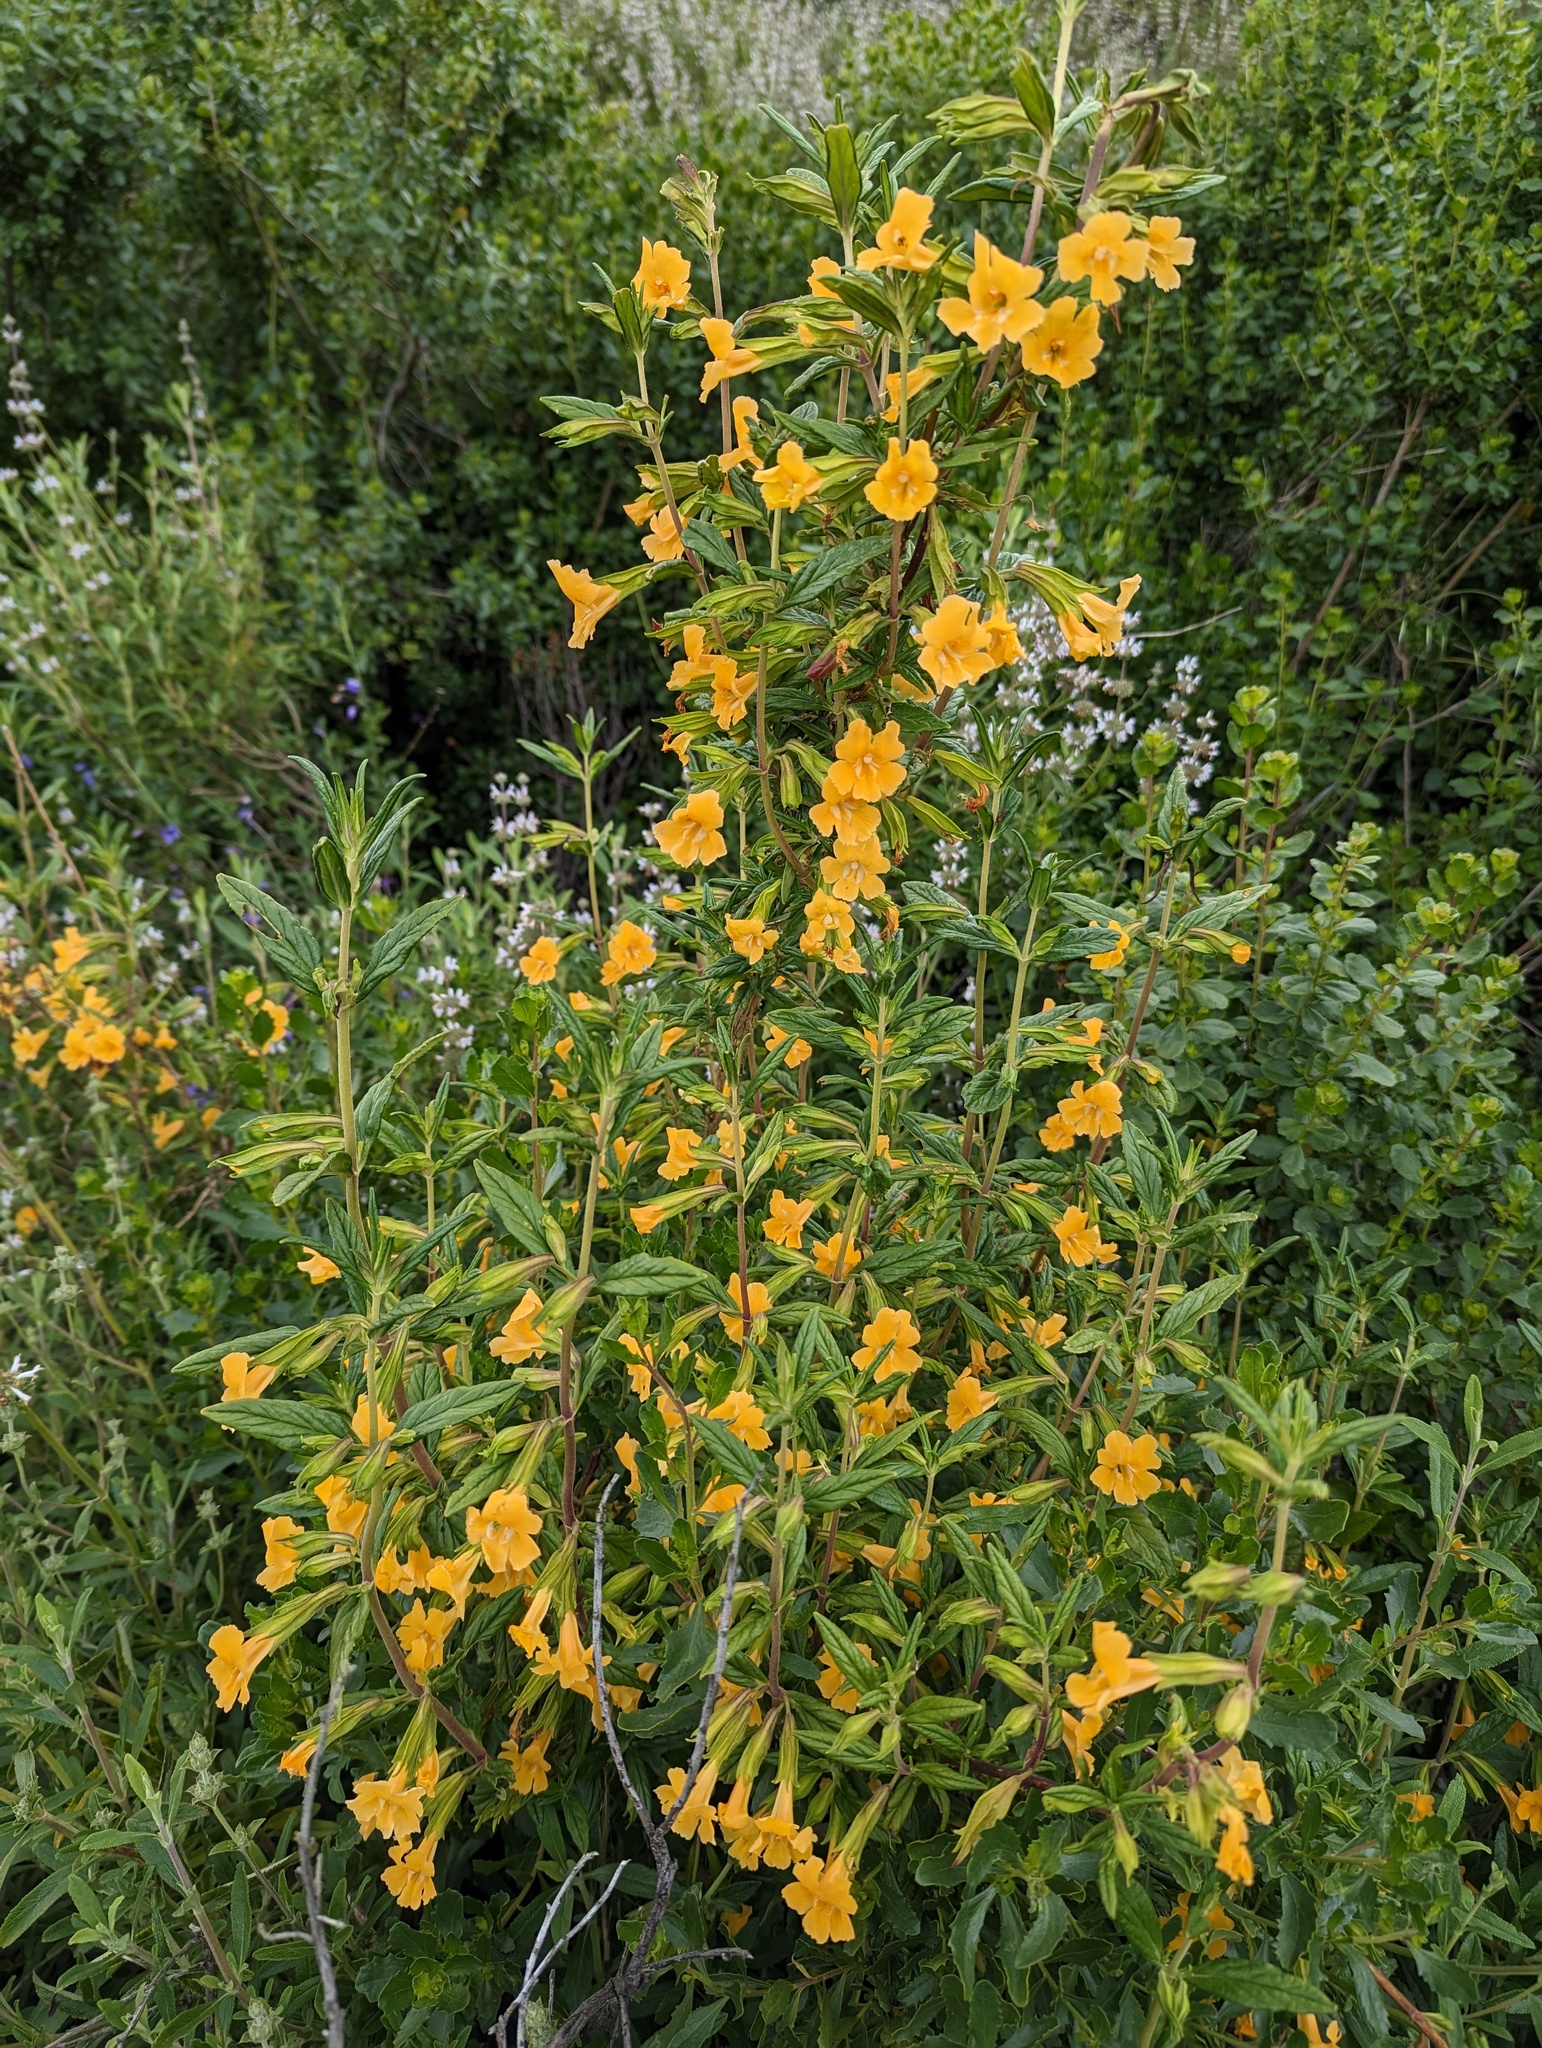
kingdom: Plantae
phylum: Tracheophyta
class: Magnoliopsida
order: Lamiales
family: Phrymaceae
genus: Diplacus
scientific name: Diplacus aurantiacus
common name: Bush monkey-flower
